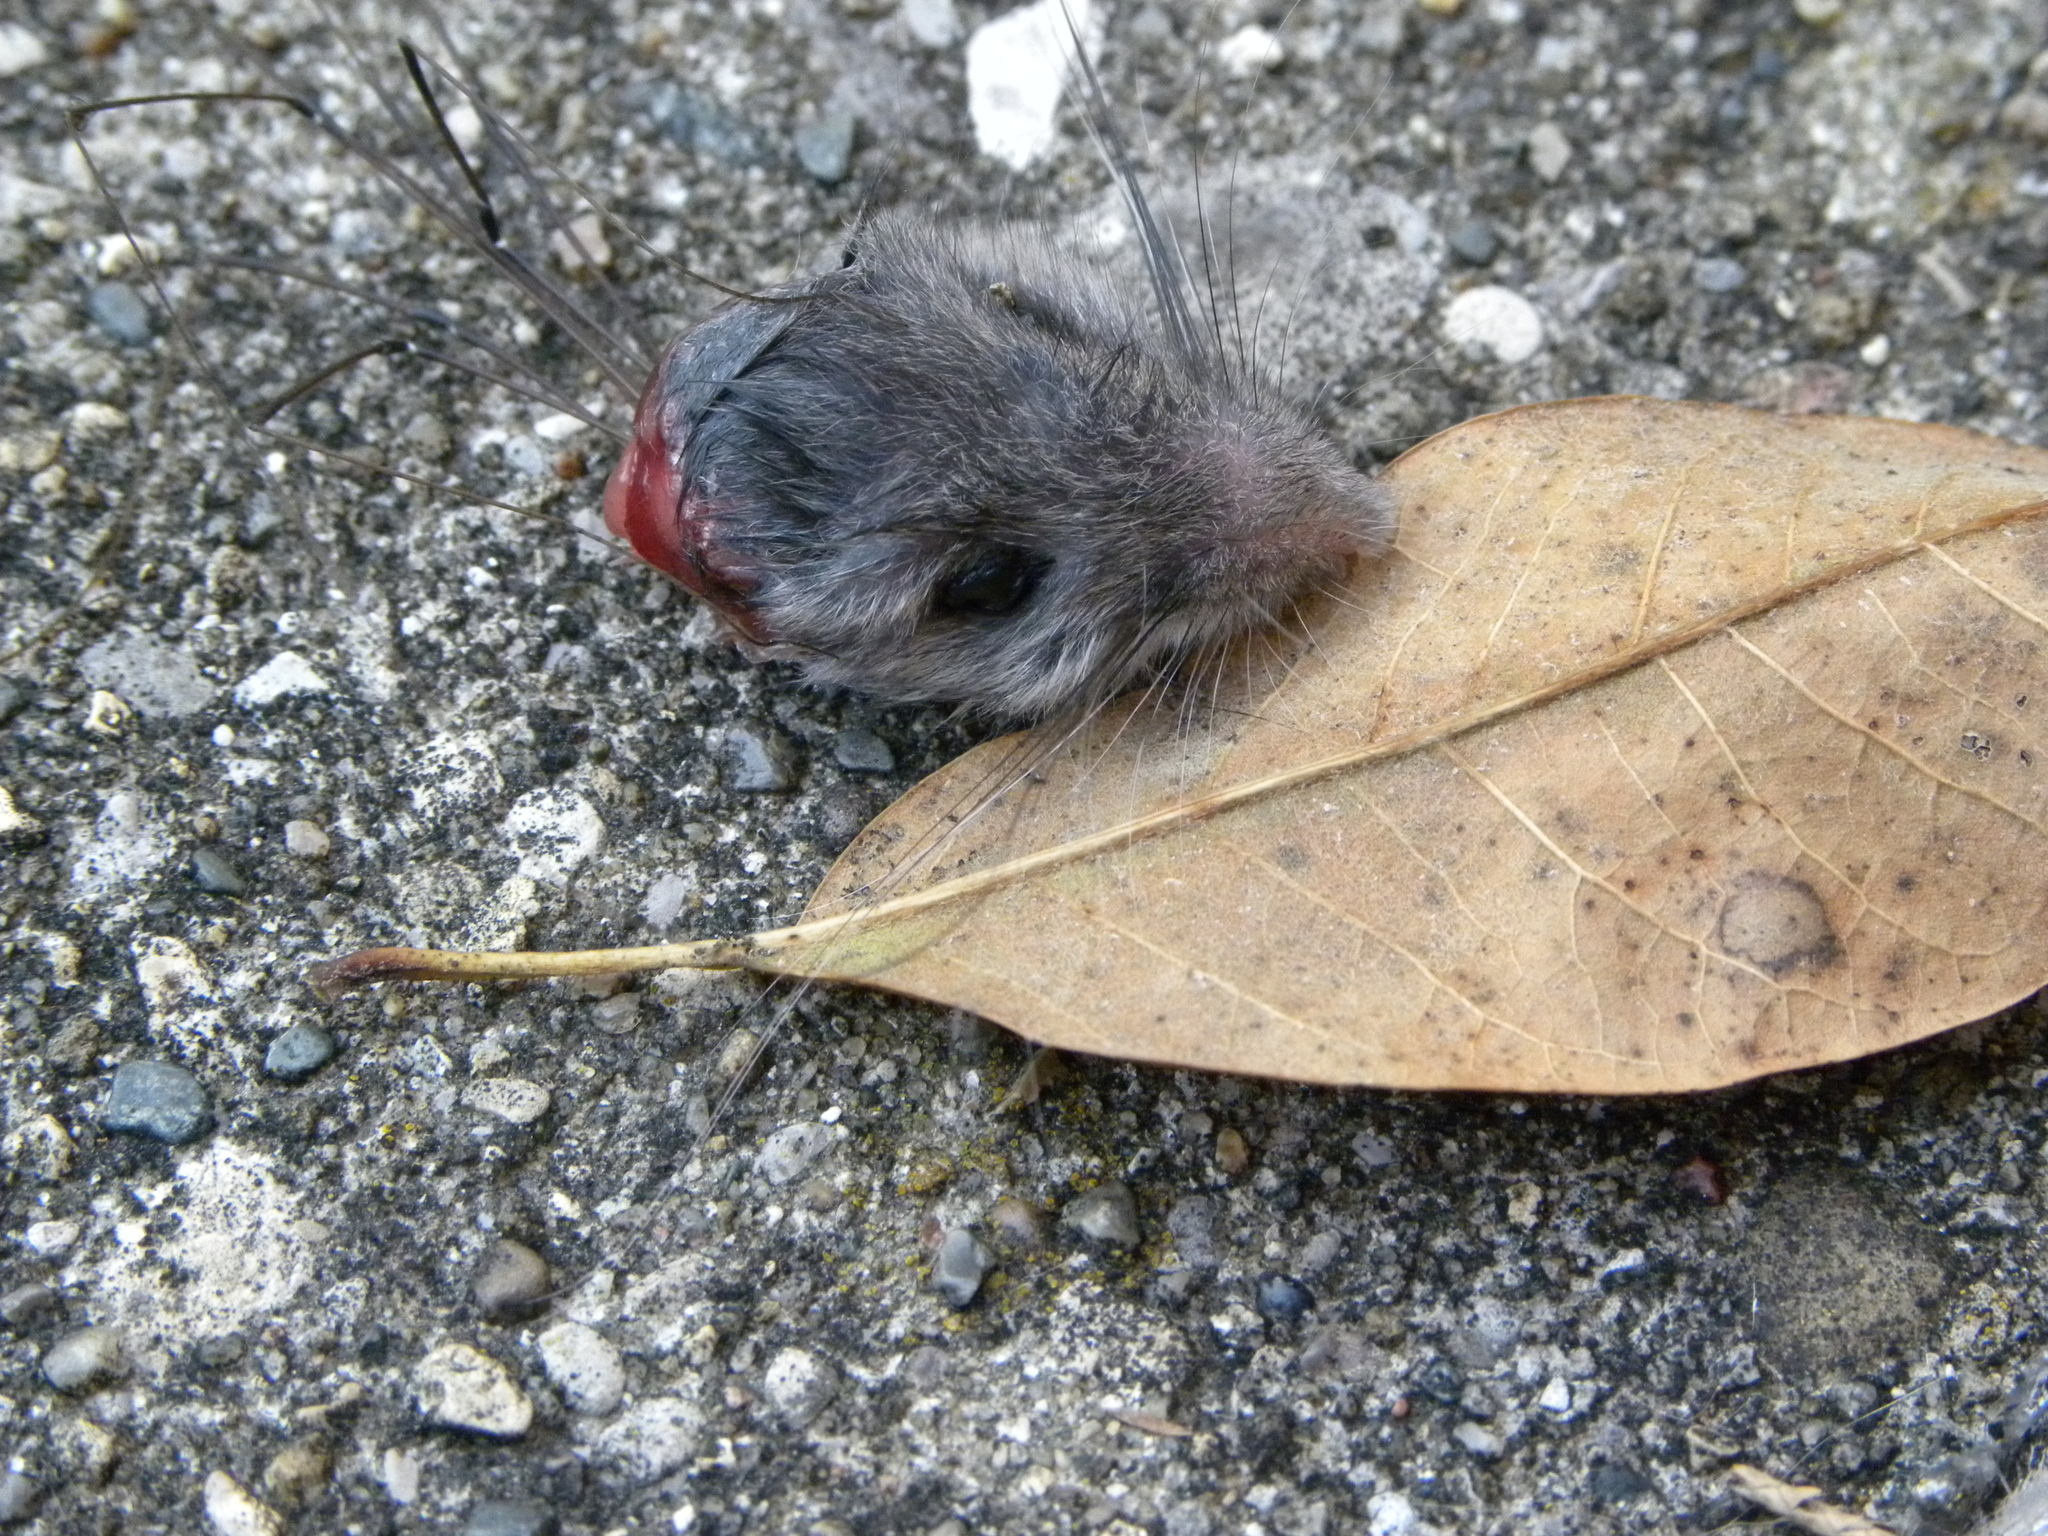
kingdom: Animalia
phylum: Arthropoda
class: Insecta
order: Diptera
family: Oestridae
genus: Cuterebra
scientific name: Cuterebra fontinella
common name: Mouse bot fly
